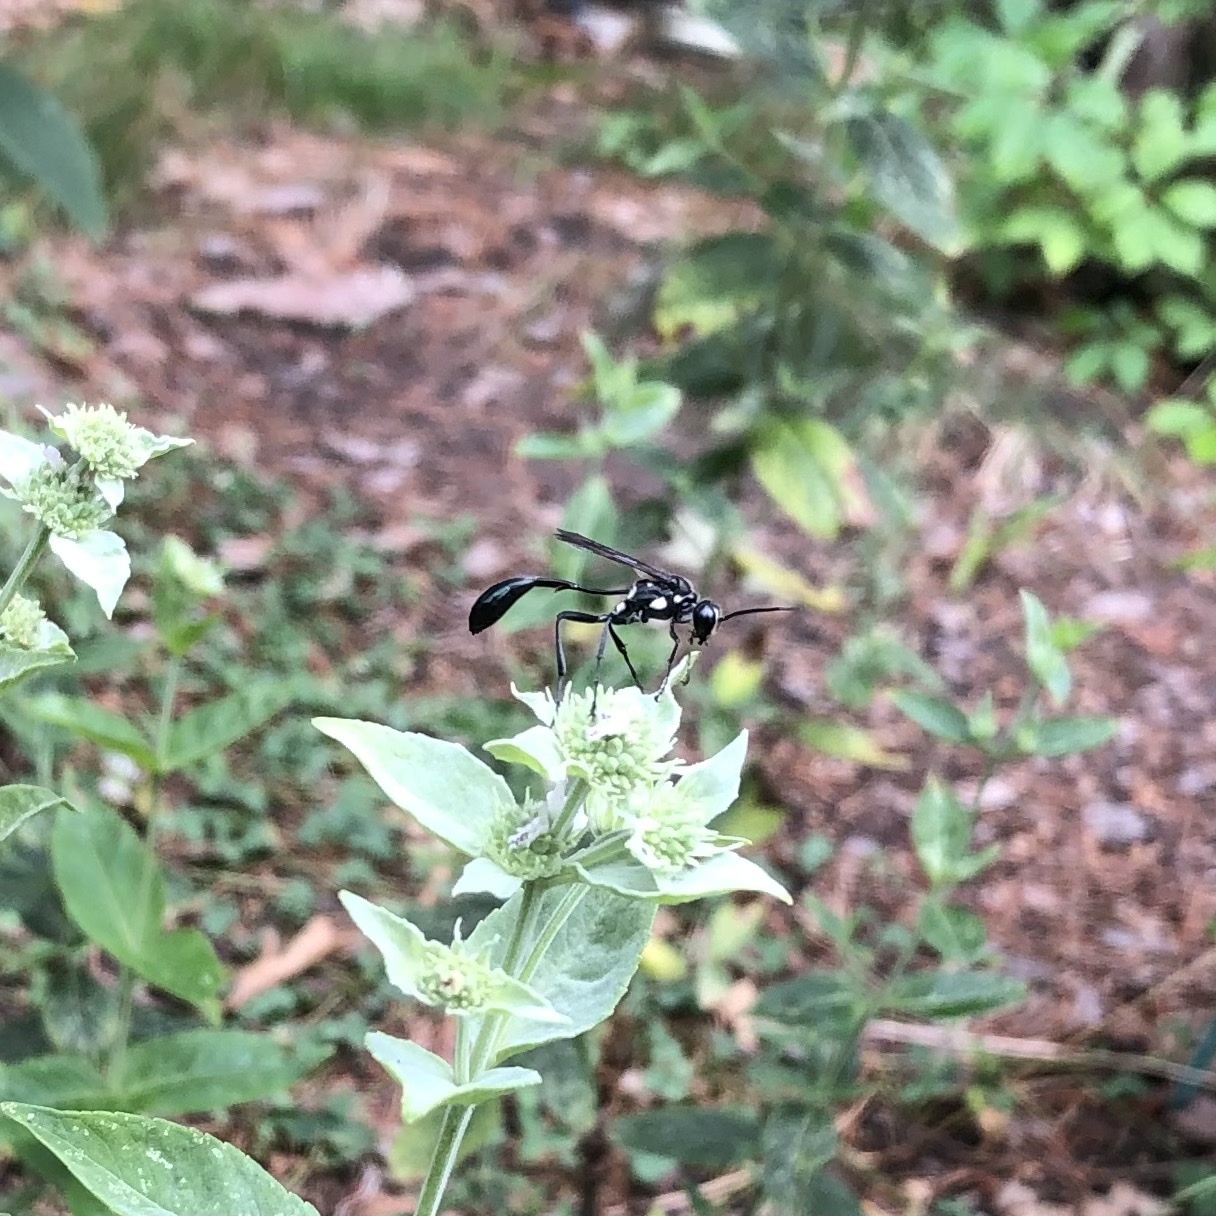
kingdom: Animalia
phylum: Arthropoda
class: Insecta
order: Hymenoptera
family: Sphecidae
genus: Eremnophila
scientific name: Eremnophila aureonotata
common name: Gold-marked thread-waisted wasp
